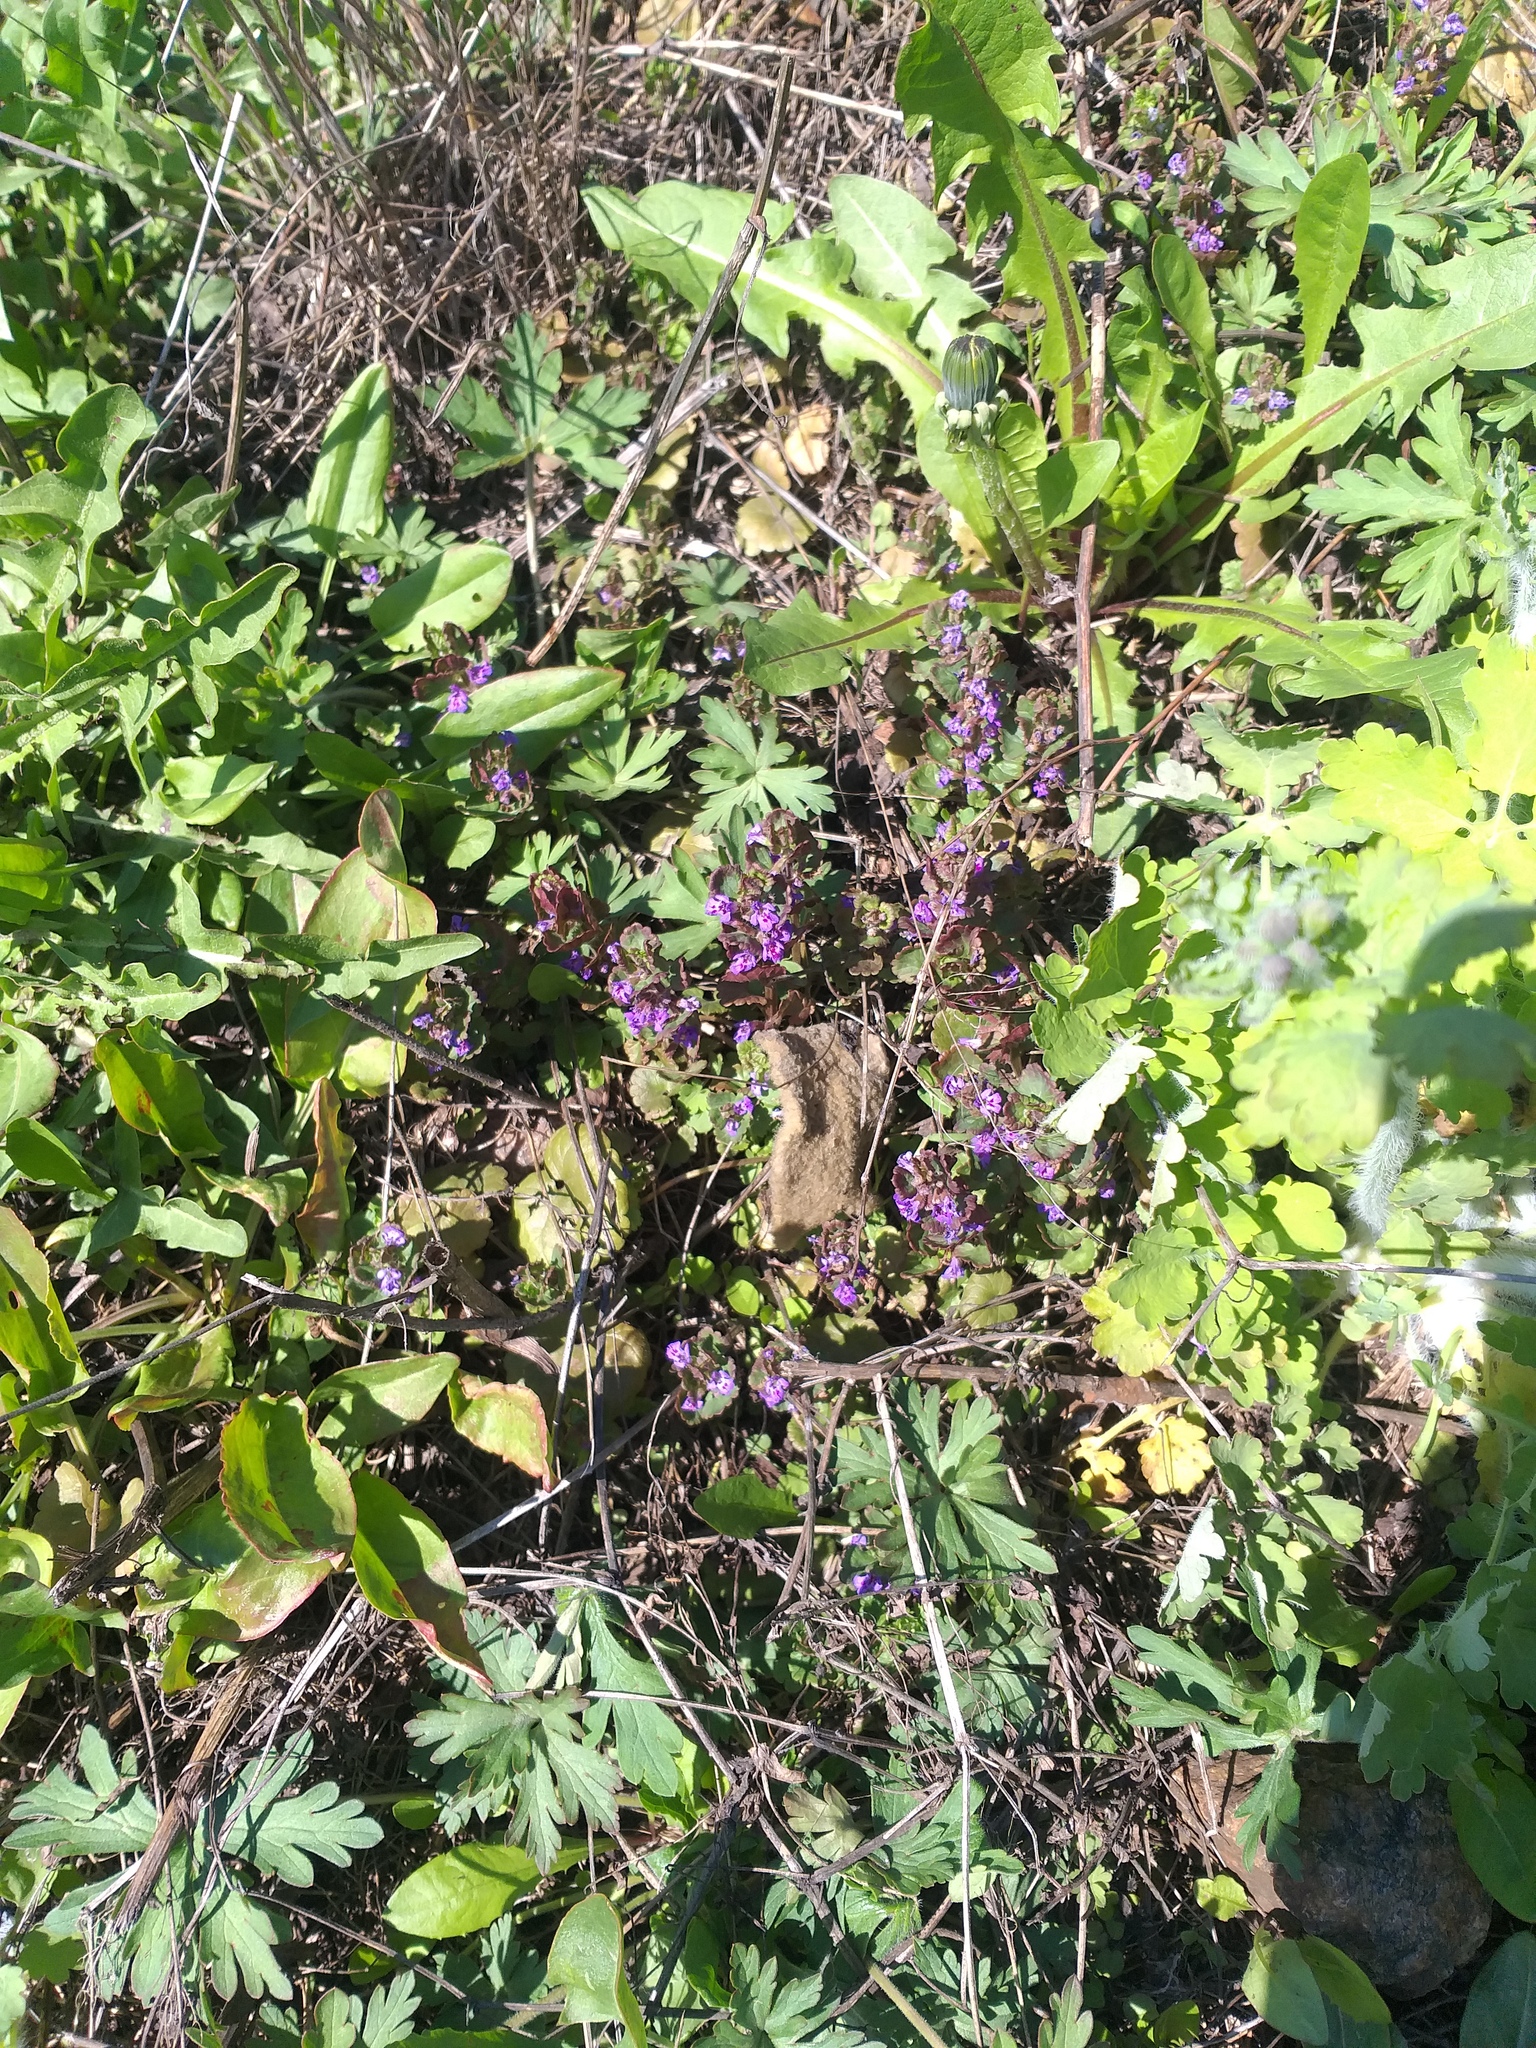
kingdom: Plantae
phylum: Tracheophyta
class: Magnoliopsida
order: Lamiales
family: Lamiaceae
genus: Glechoma
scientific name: Glechoma hederacea
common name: Ground ivy
